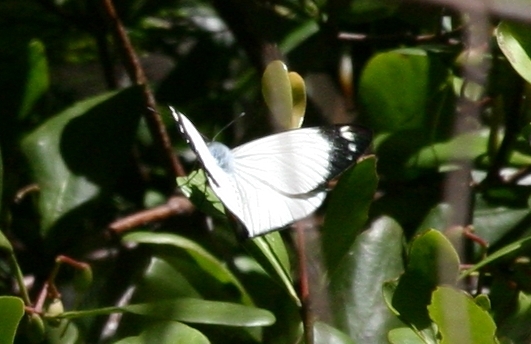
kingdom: Animalia
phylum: Arthropoda
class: Insecta
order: Lepidoptera
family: Pieridae
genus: Delias
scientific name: Delias nigrina
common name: Black jezebel
